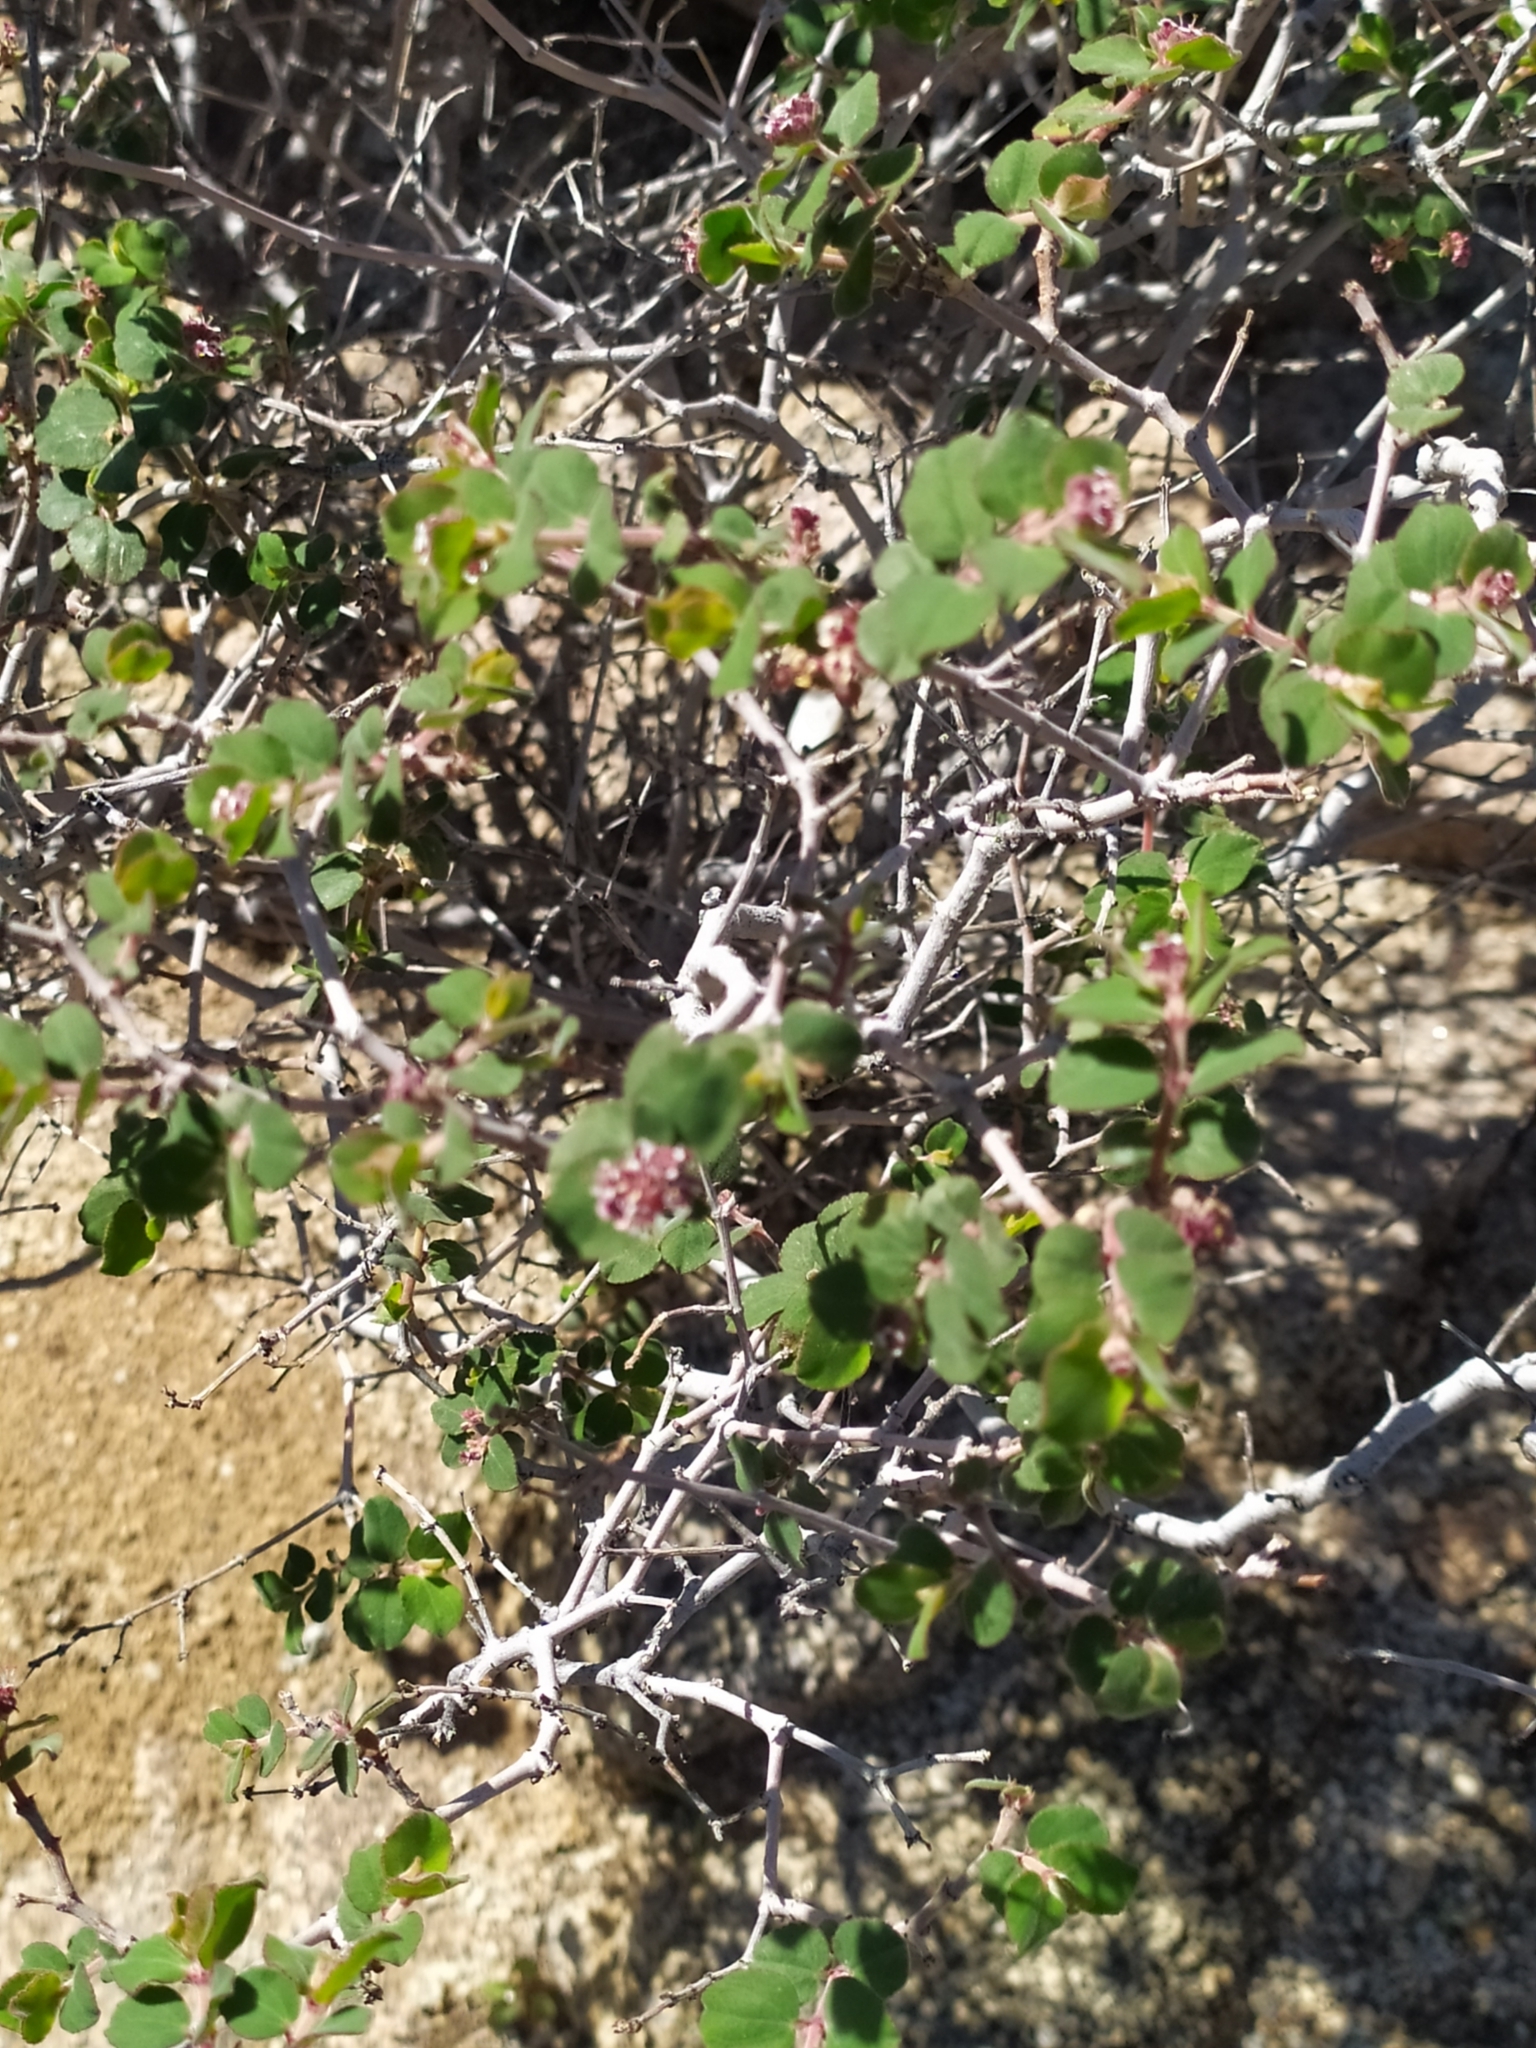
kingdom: Plantae
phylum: Tracheophyta
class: Magnoliopsida
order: Malpighiales
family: Euphorbiaceae
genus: Euphorbia
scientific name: Euphorbia tomentulosa
